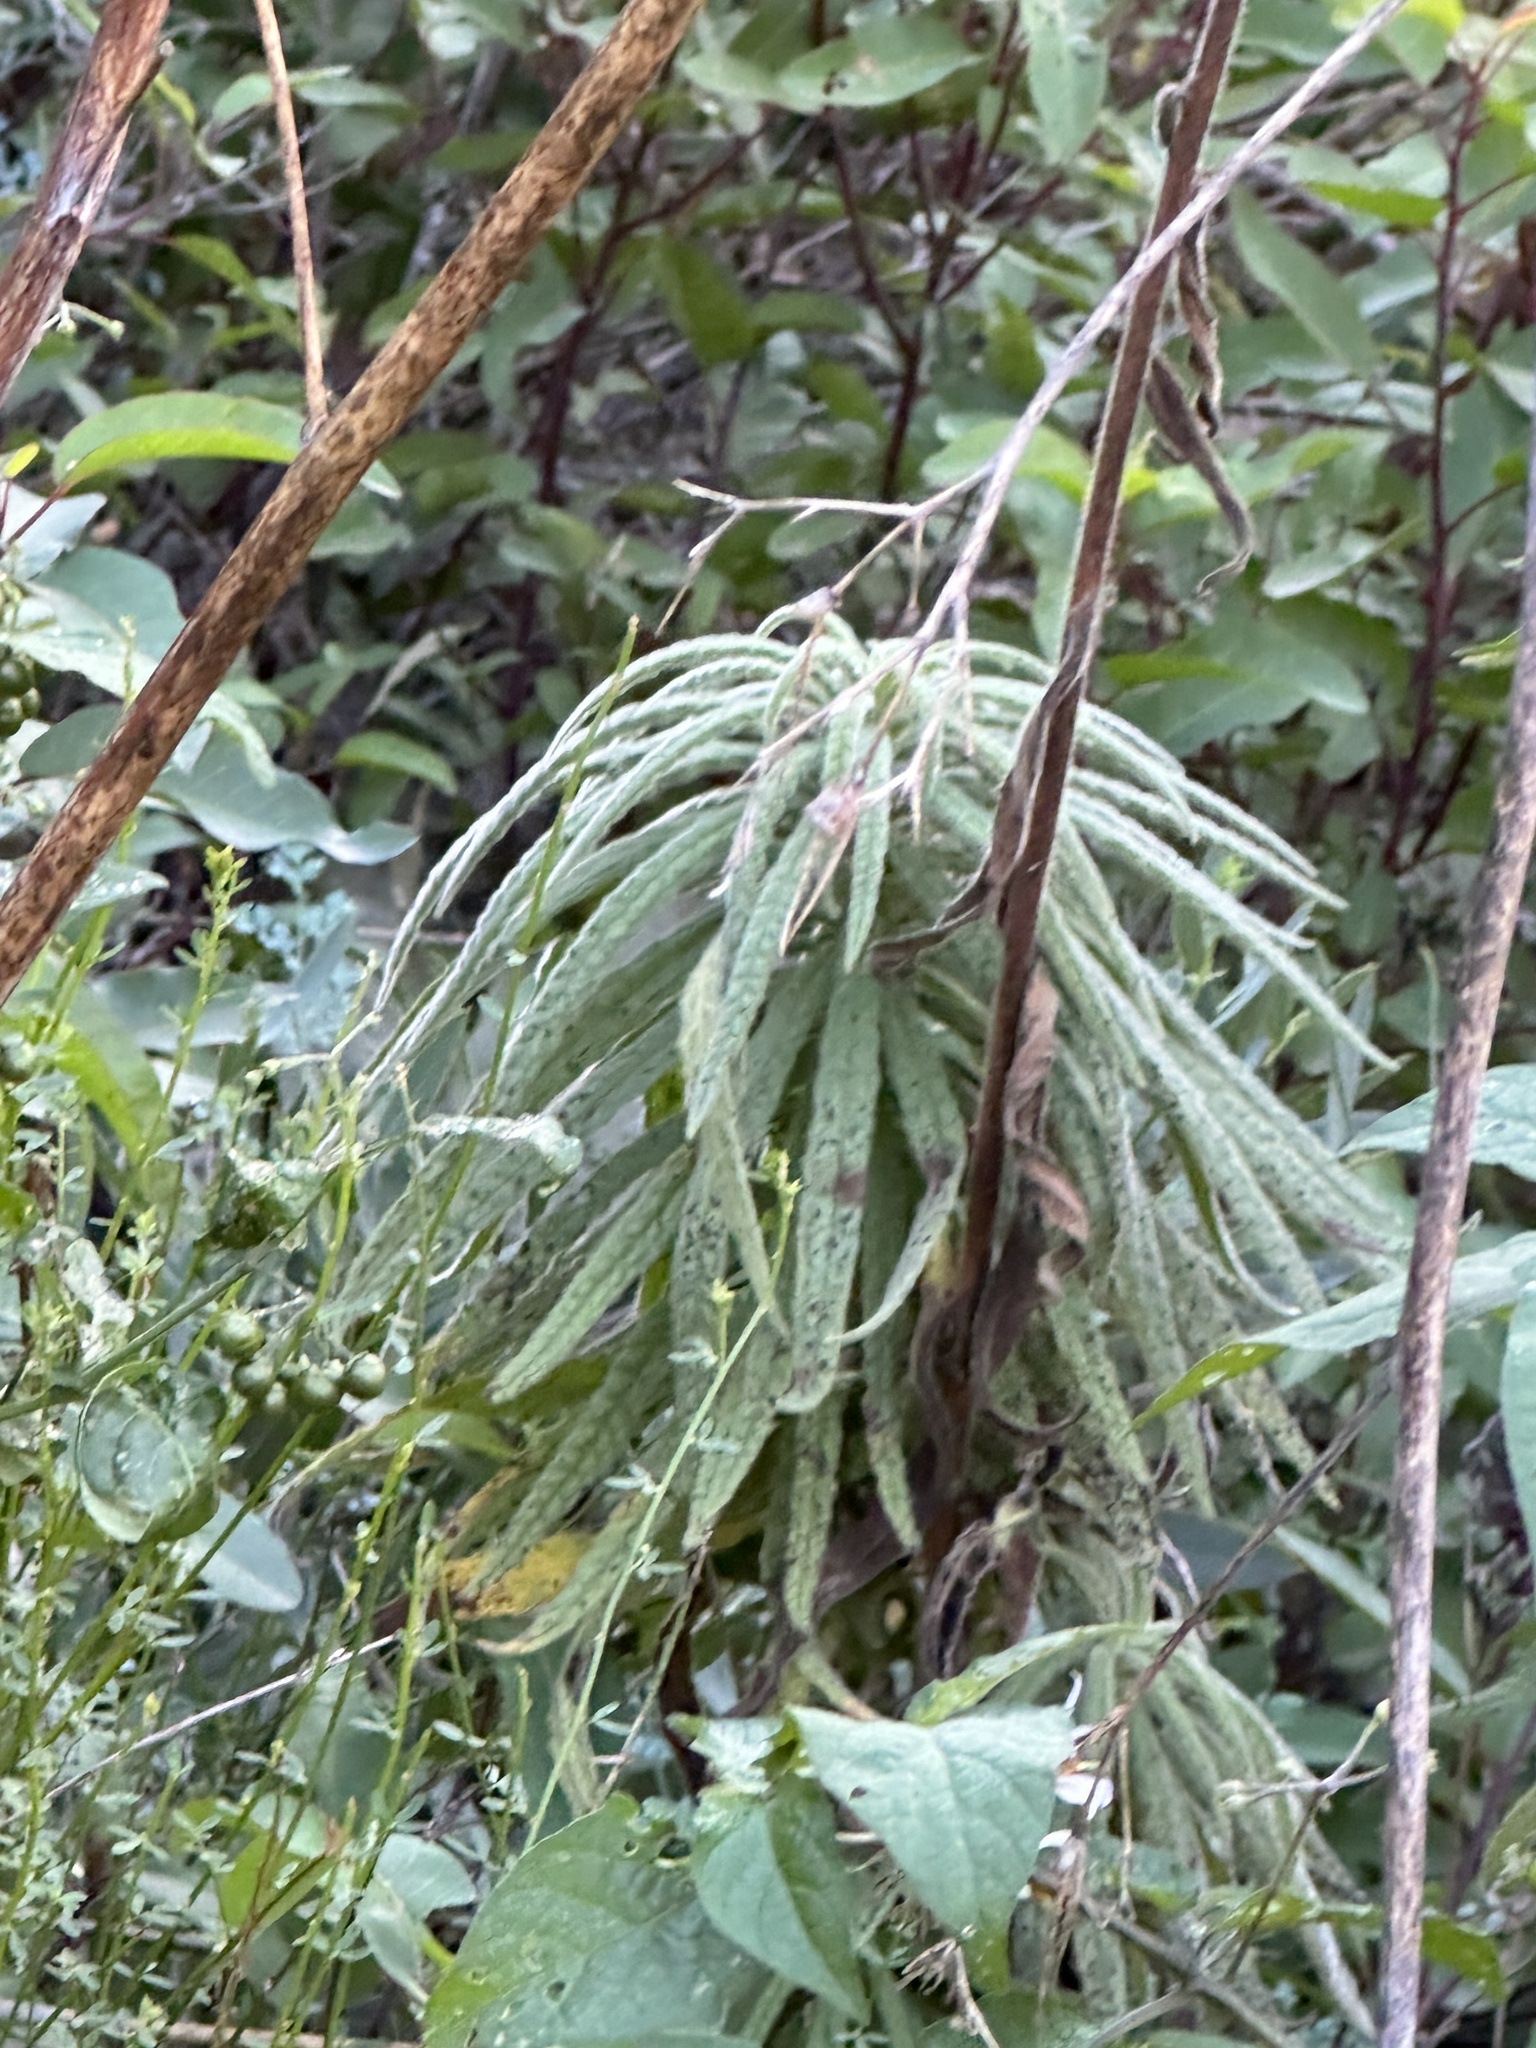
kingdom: Plantae
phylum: Tracheophyta
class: Magnoliopsida
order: Boraginales
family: Namaceae
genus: Turricula
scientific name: Turricula parryi
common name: Poodle-dog-bush
